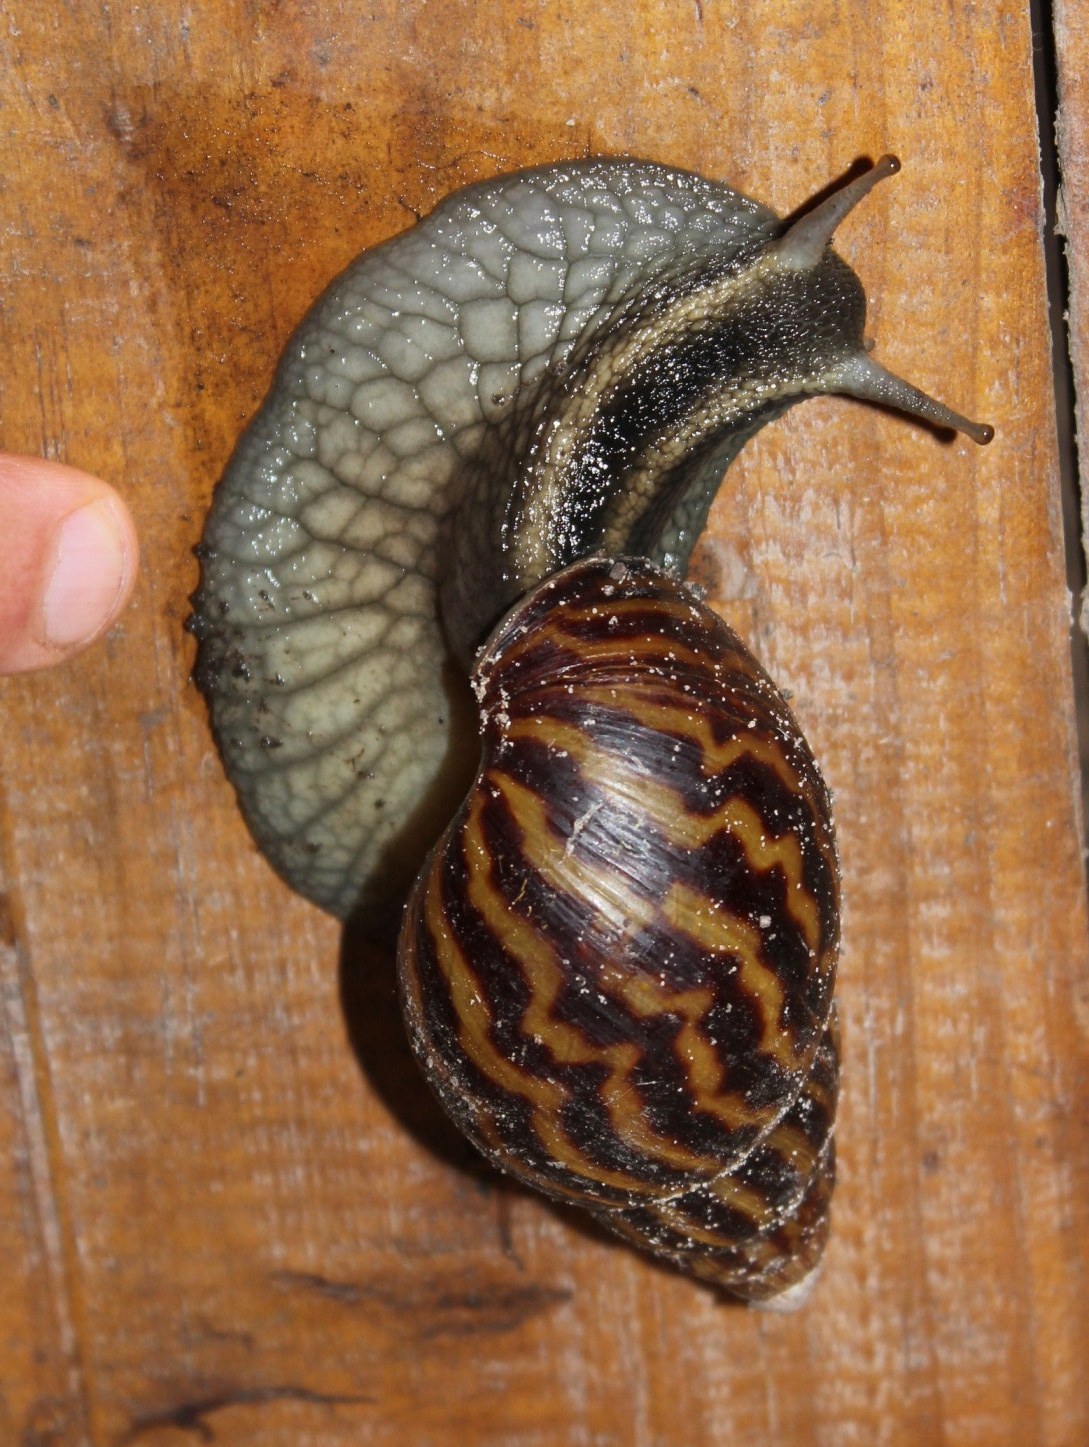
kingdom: Animalia
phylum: Mollusca
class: Gastropoda
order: Stylommatophora
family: Achatinidae
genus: Cochlitoma
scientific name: Cochlitoma zebra
